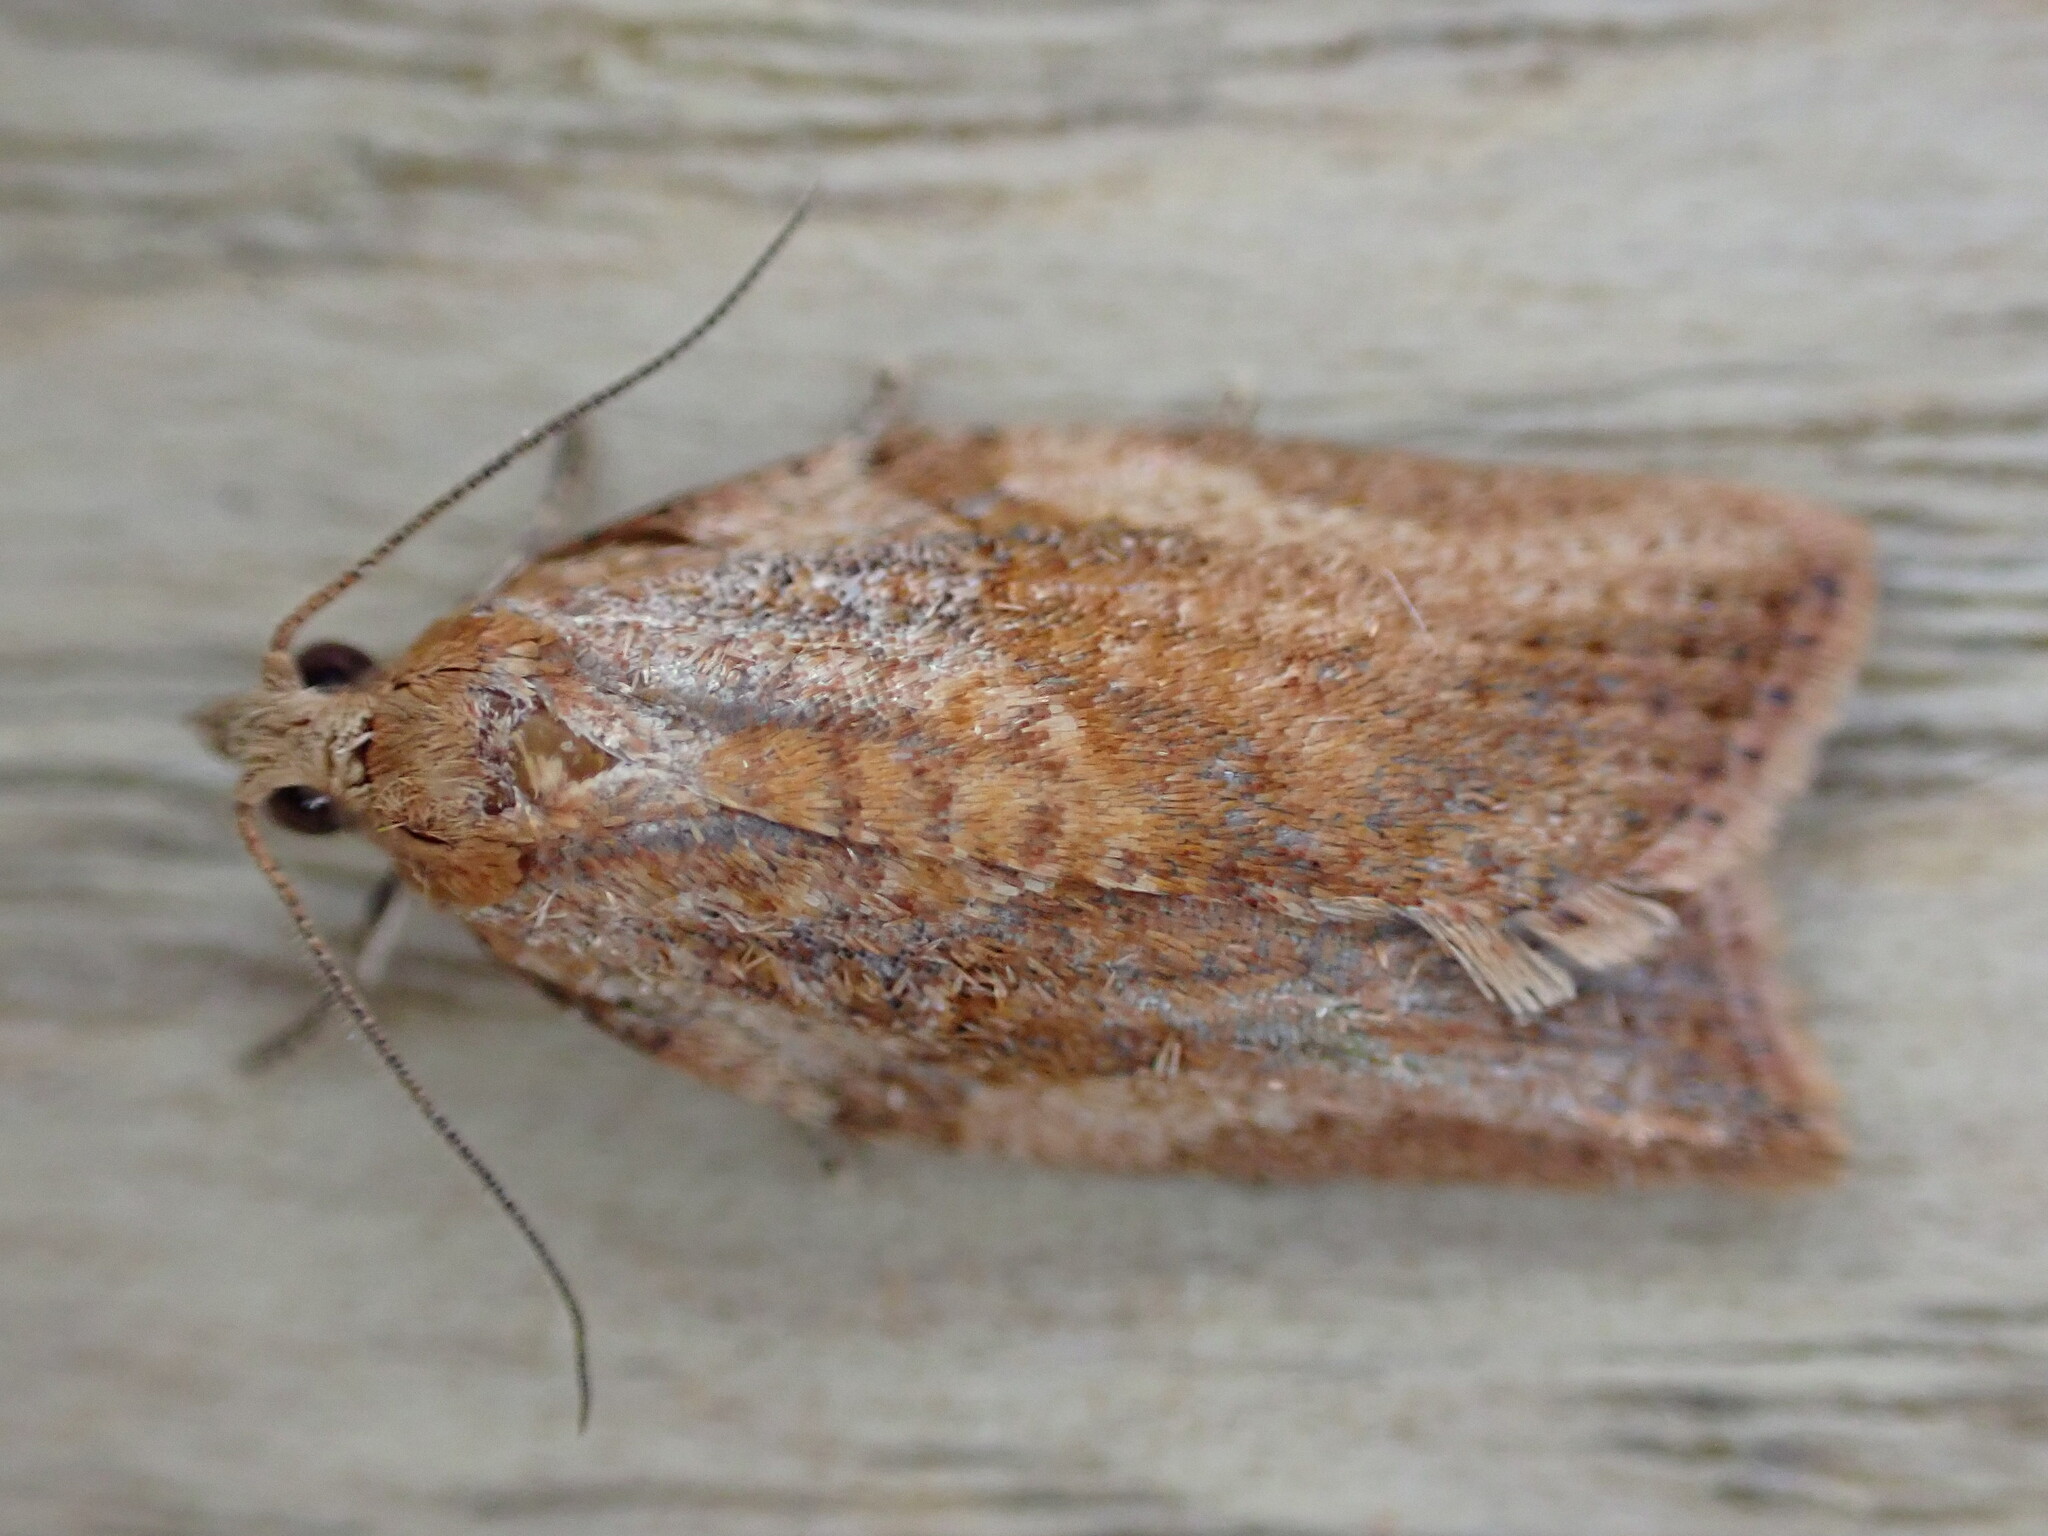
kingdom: Animalia
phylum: Arthropoda
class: Insecta
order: Lepidoptera
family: Tortricidae
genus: Epiphyas
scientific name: Epiphyas postvittana
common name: Light brown apple moth
